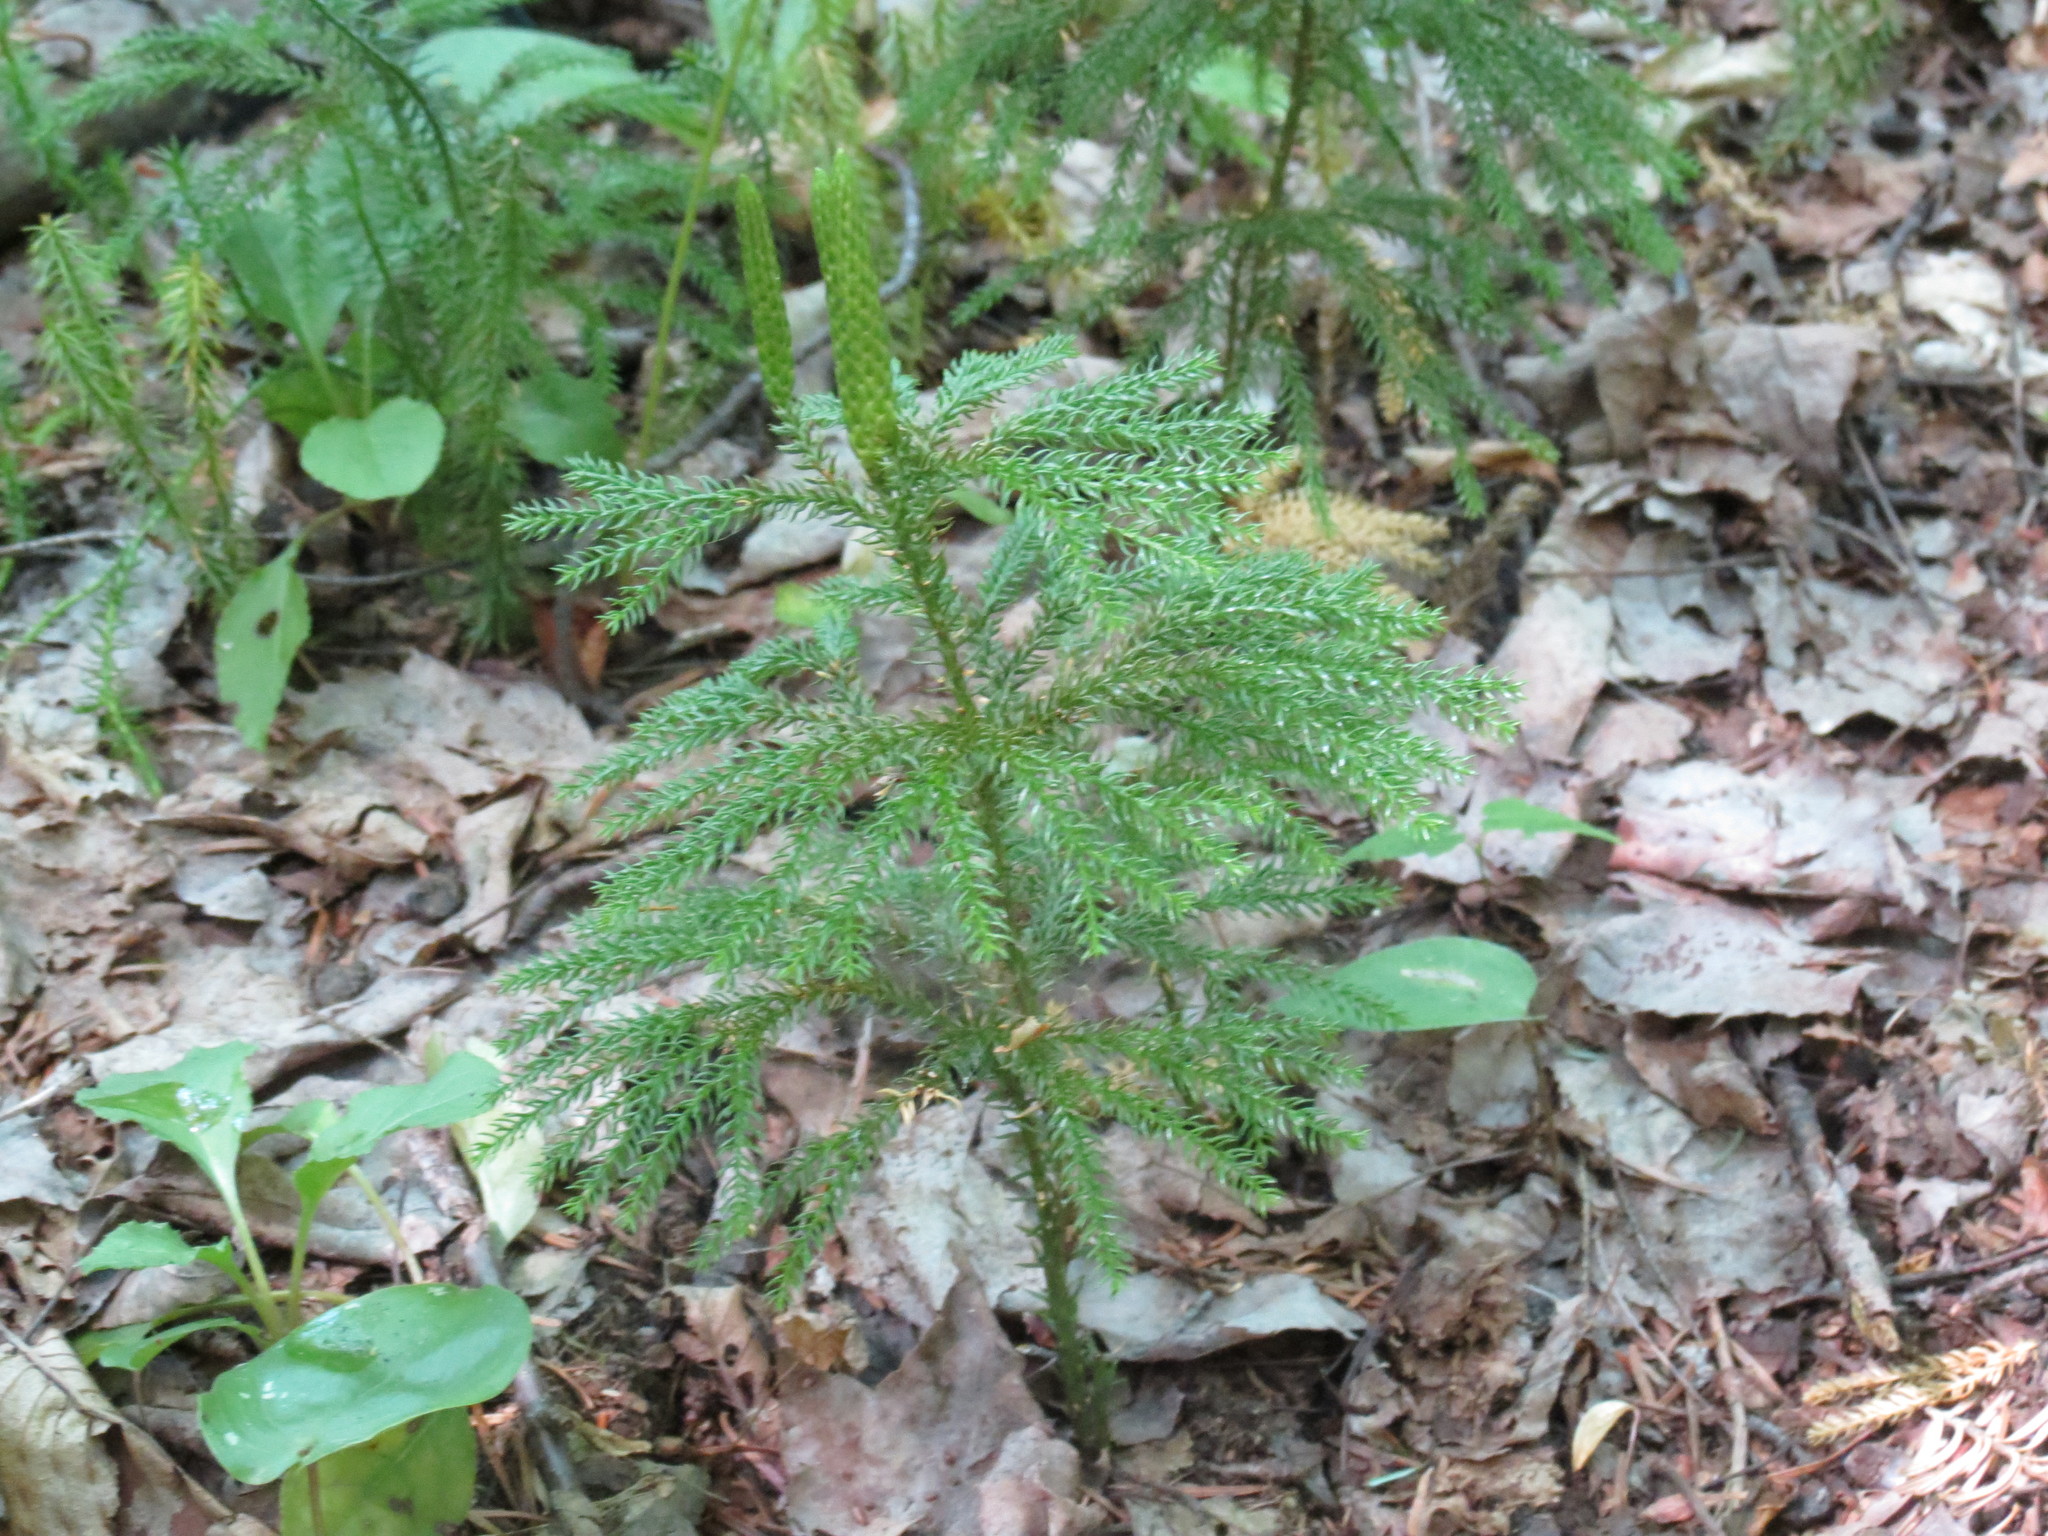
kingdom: Plantae
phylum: Tracheophyta
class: Lycopodiopsida
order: Lycopodiales
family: Lycopodiaceae
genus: Dendrolycopodium
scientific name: Dendrolycopodium dendroideum
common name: Northern tree-clubmoss
